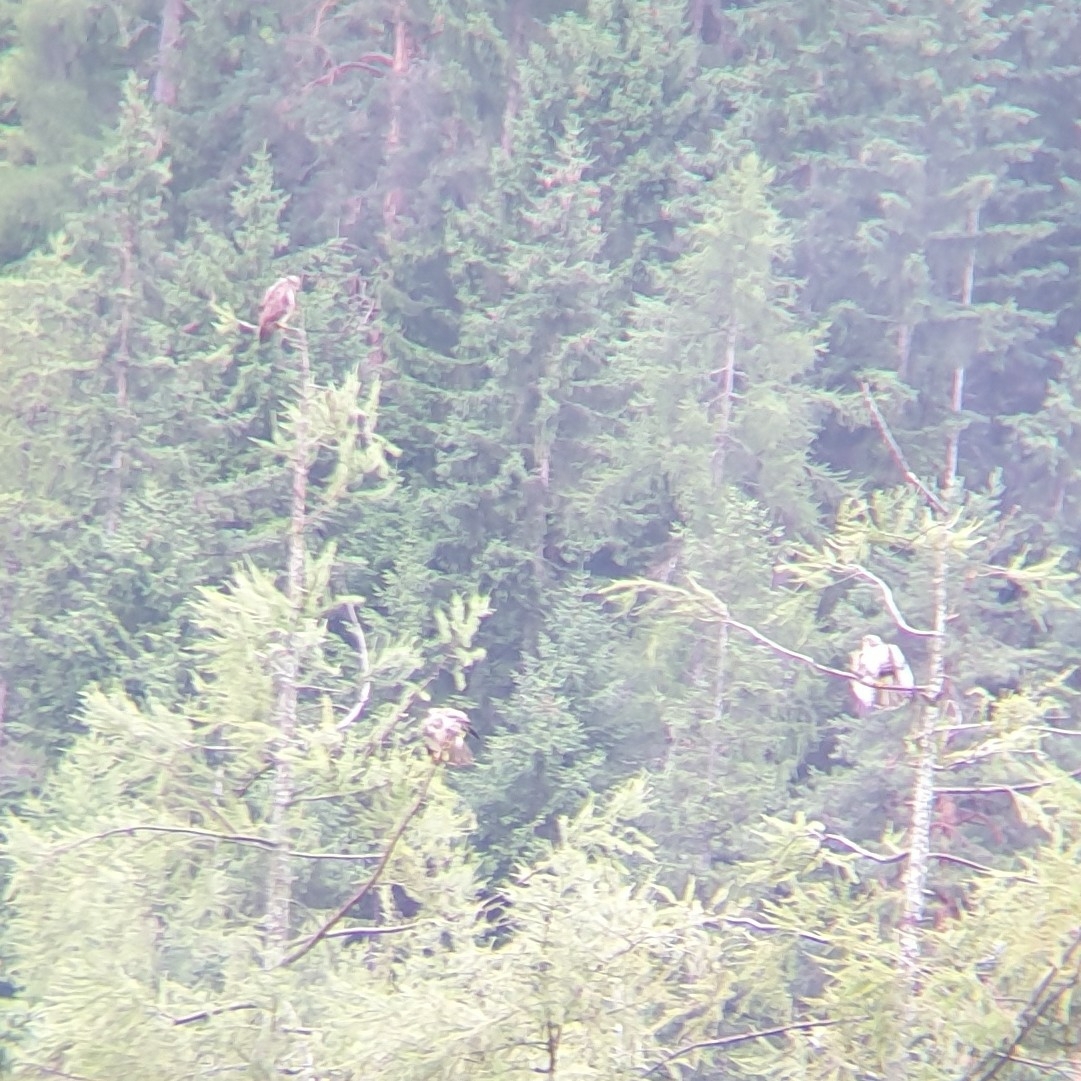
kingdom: Animalia
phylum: Chordata
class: Aves
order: Accipitriformes
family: Accipitridae
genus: Buteo
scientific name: Buteo buteo
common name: Common buzzard
